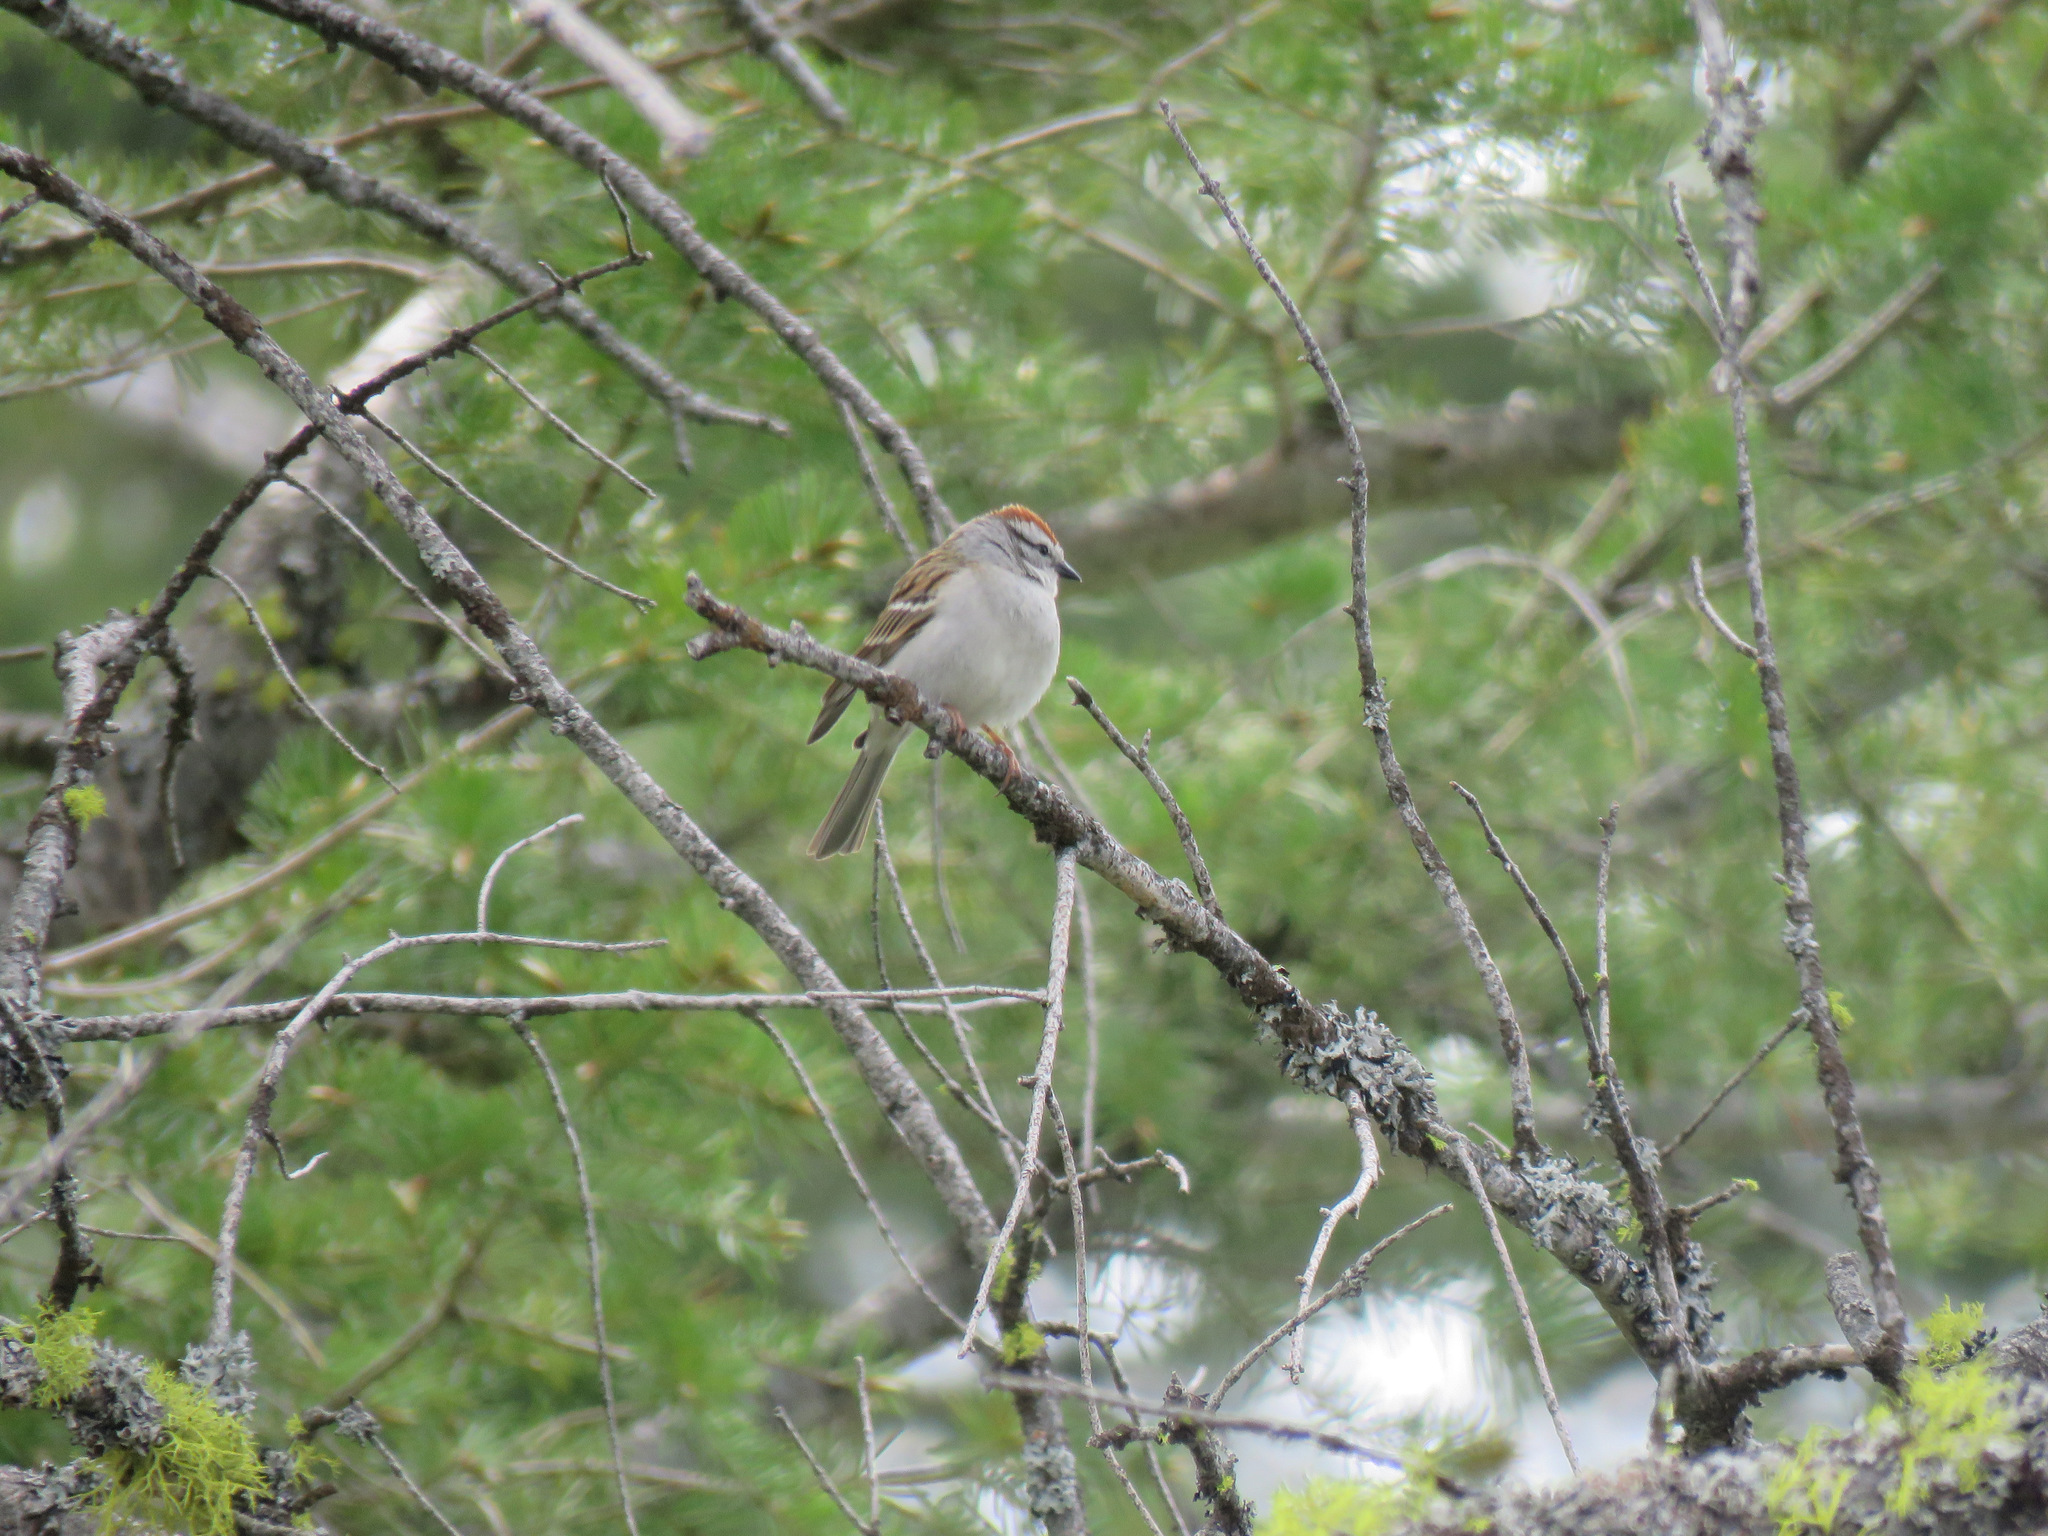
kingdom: Animalia
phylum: Chordata
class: Aves
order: Passeriformes
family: Passerellidae
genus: Spizella
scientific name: Spizella passerina
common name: Chipping sparrow
